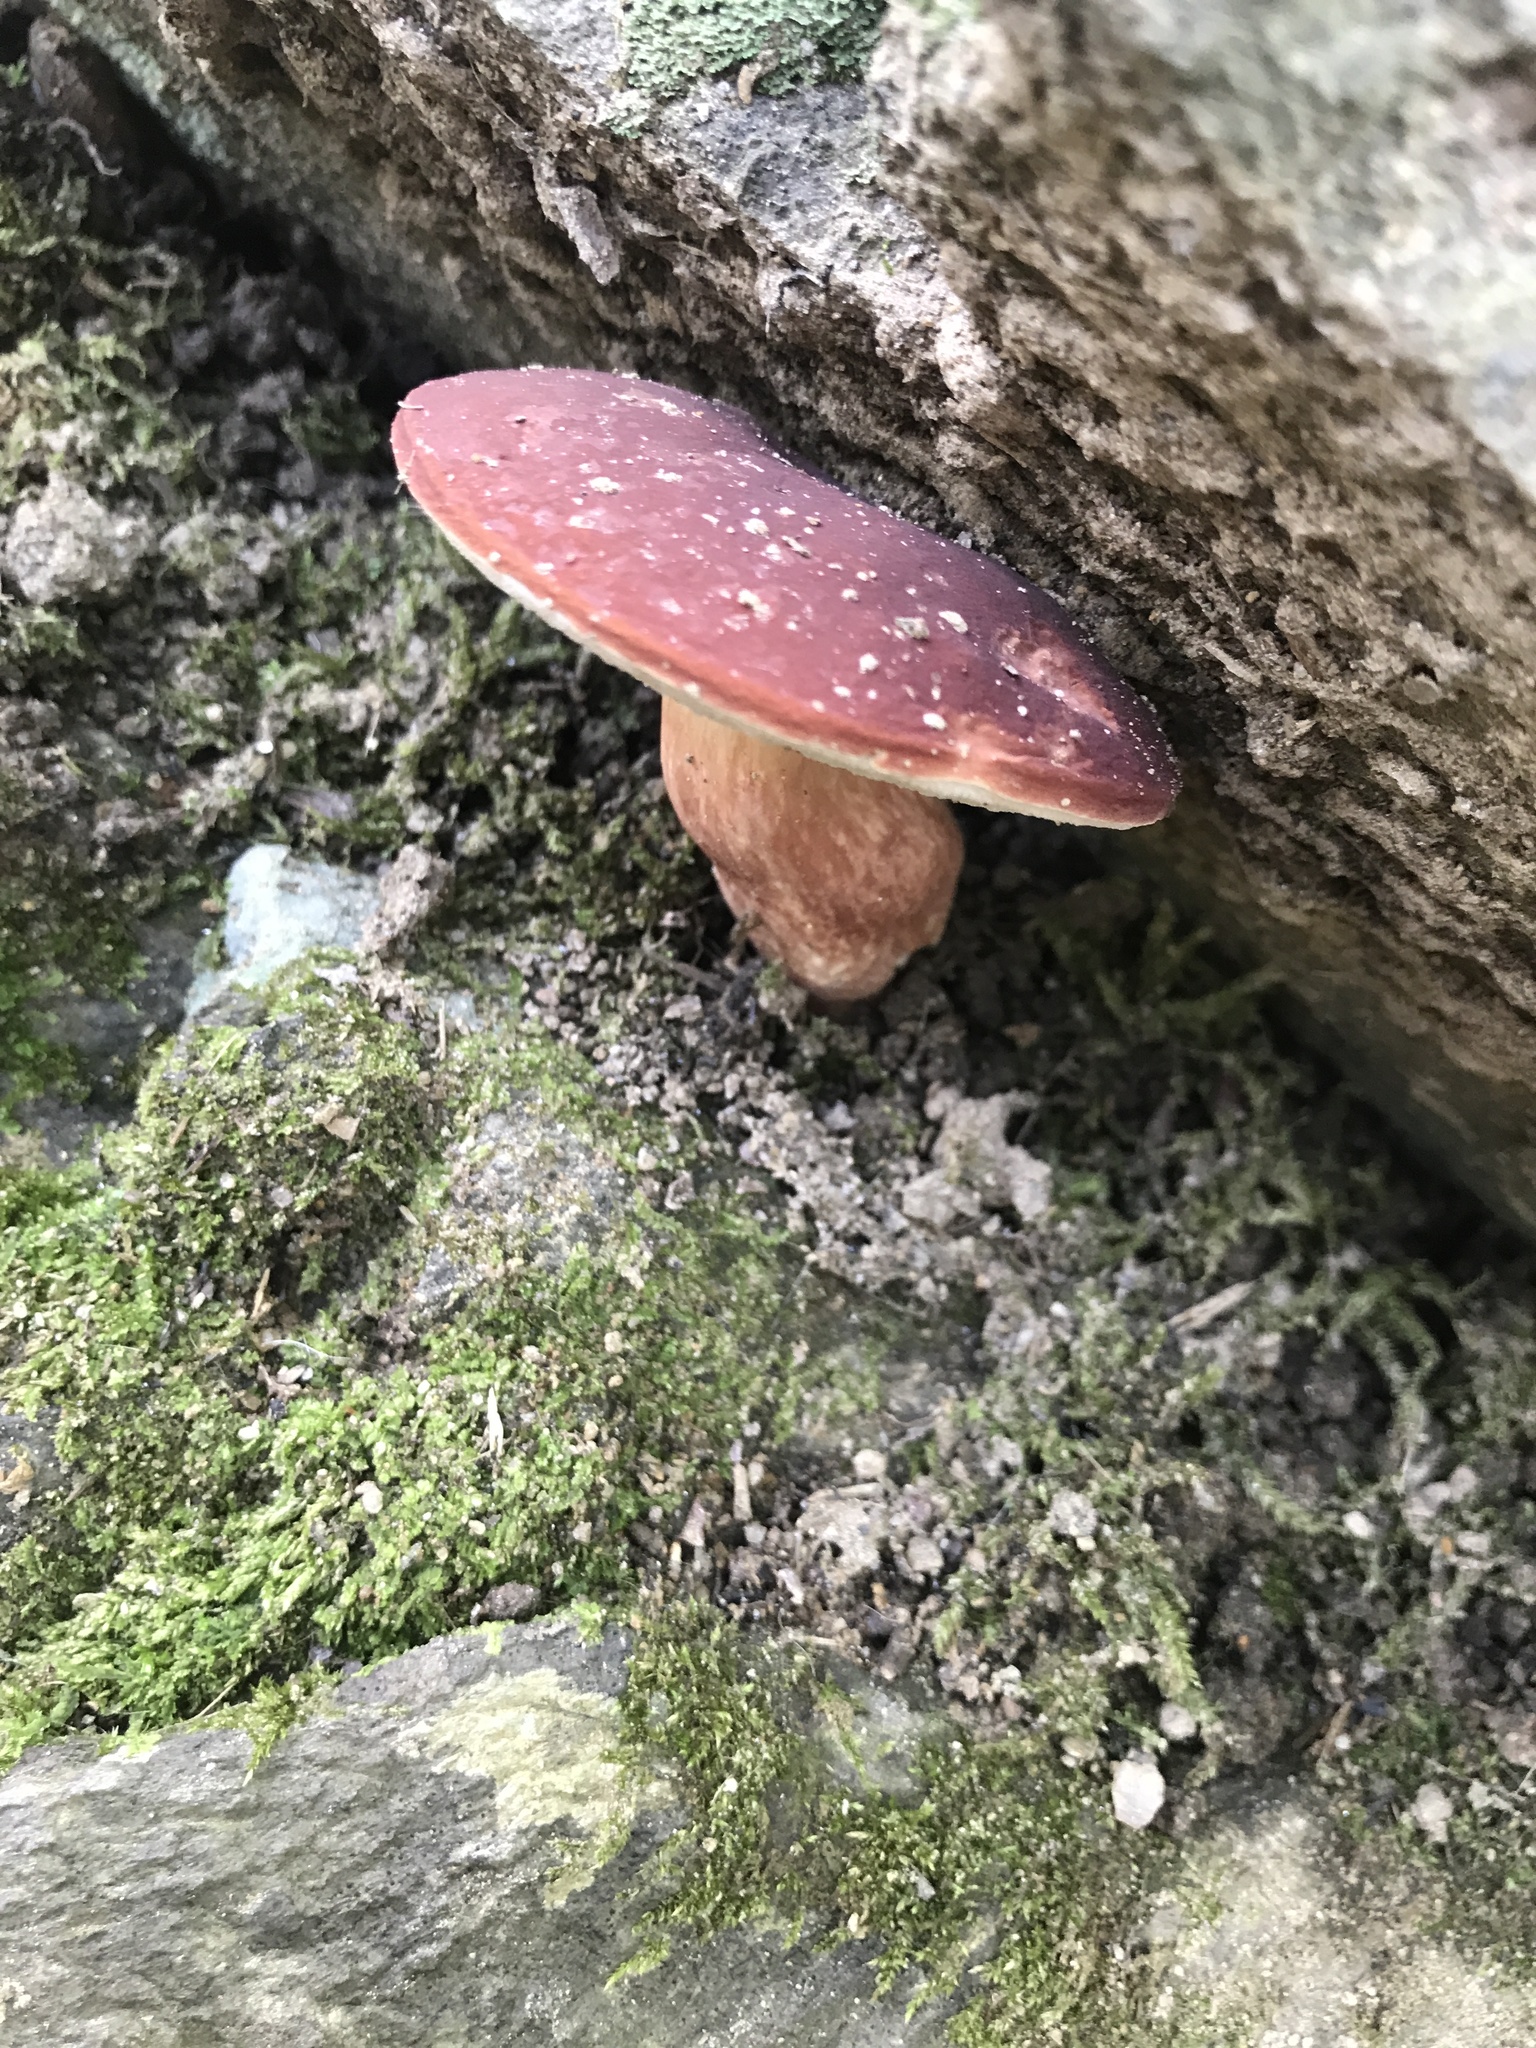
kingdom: Fungi
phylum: Basidiomycota
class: Agaricomycetes
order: Boletales
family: Boletaceae
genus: Xanthoconium
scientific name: Xanthoconium purpureum
